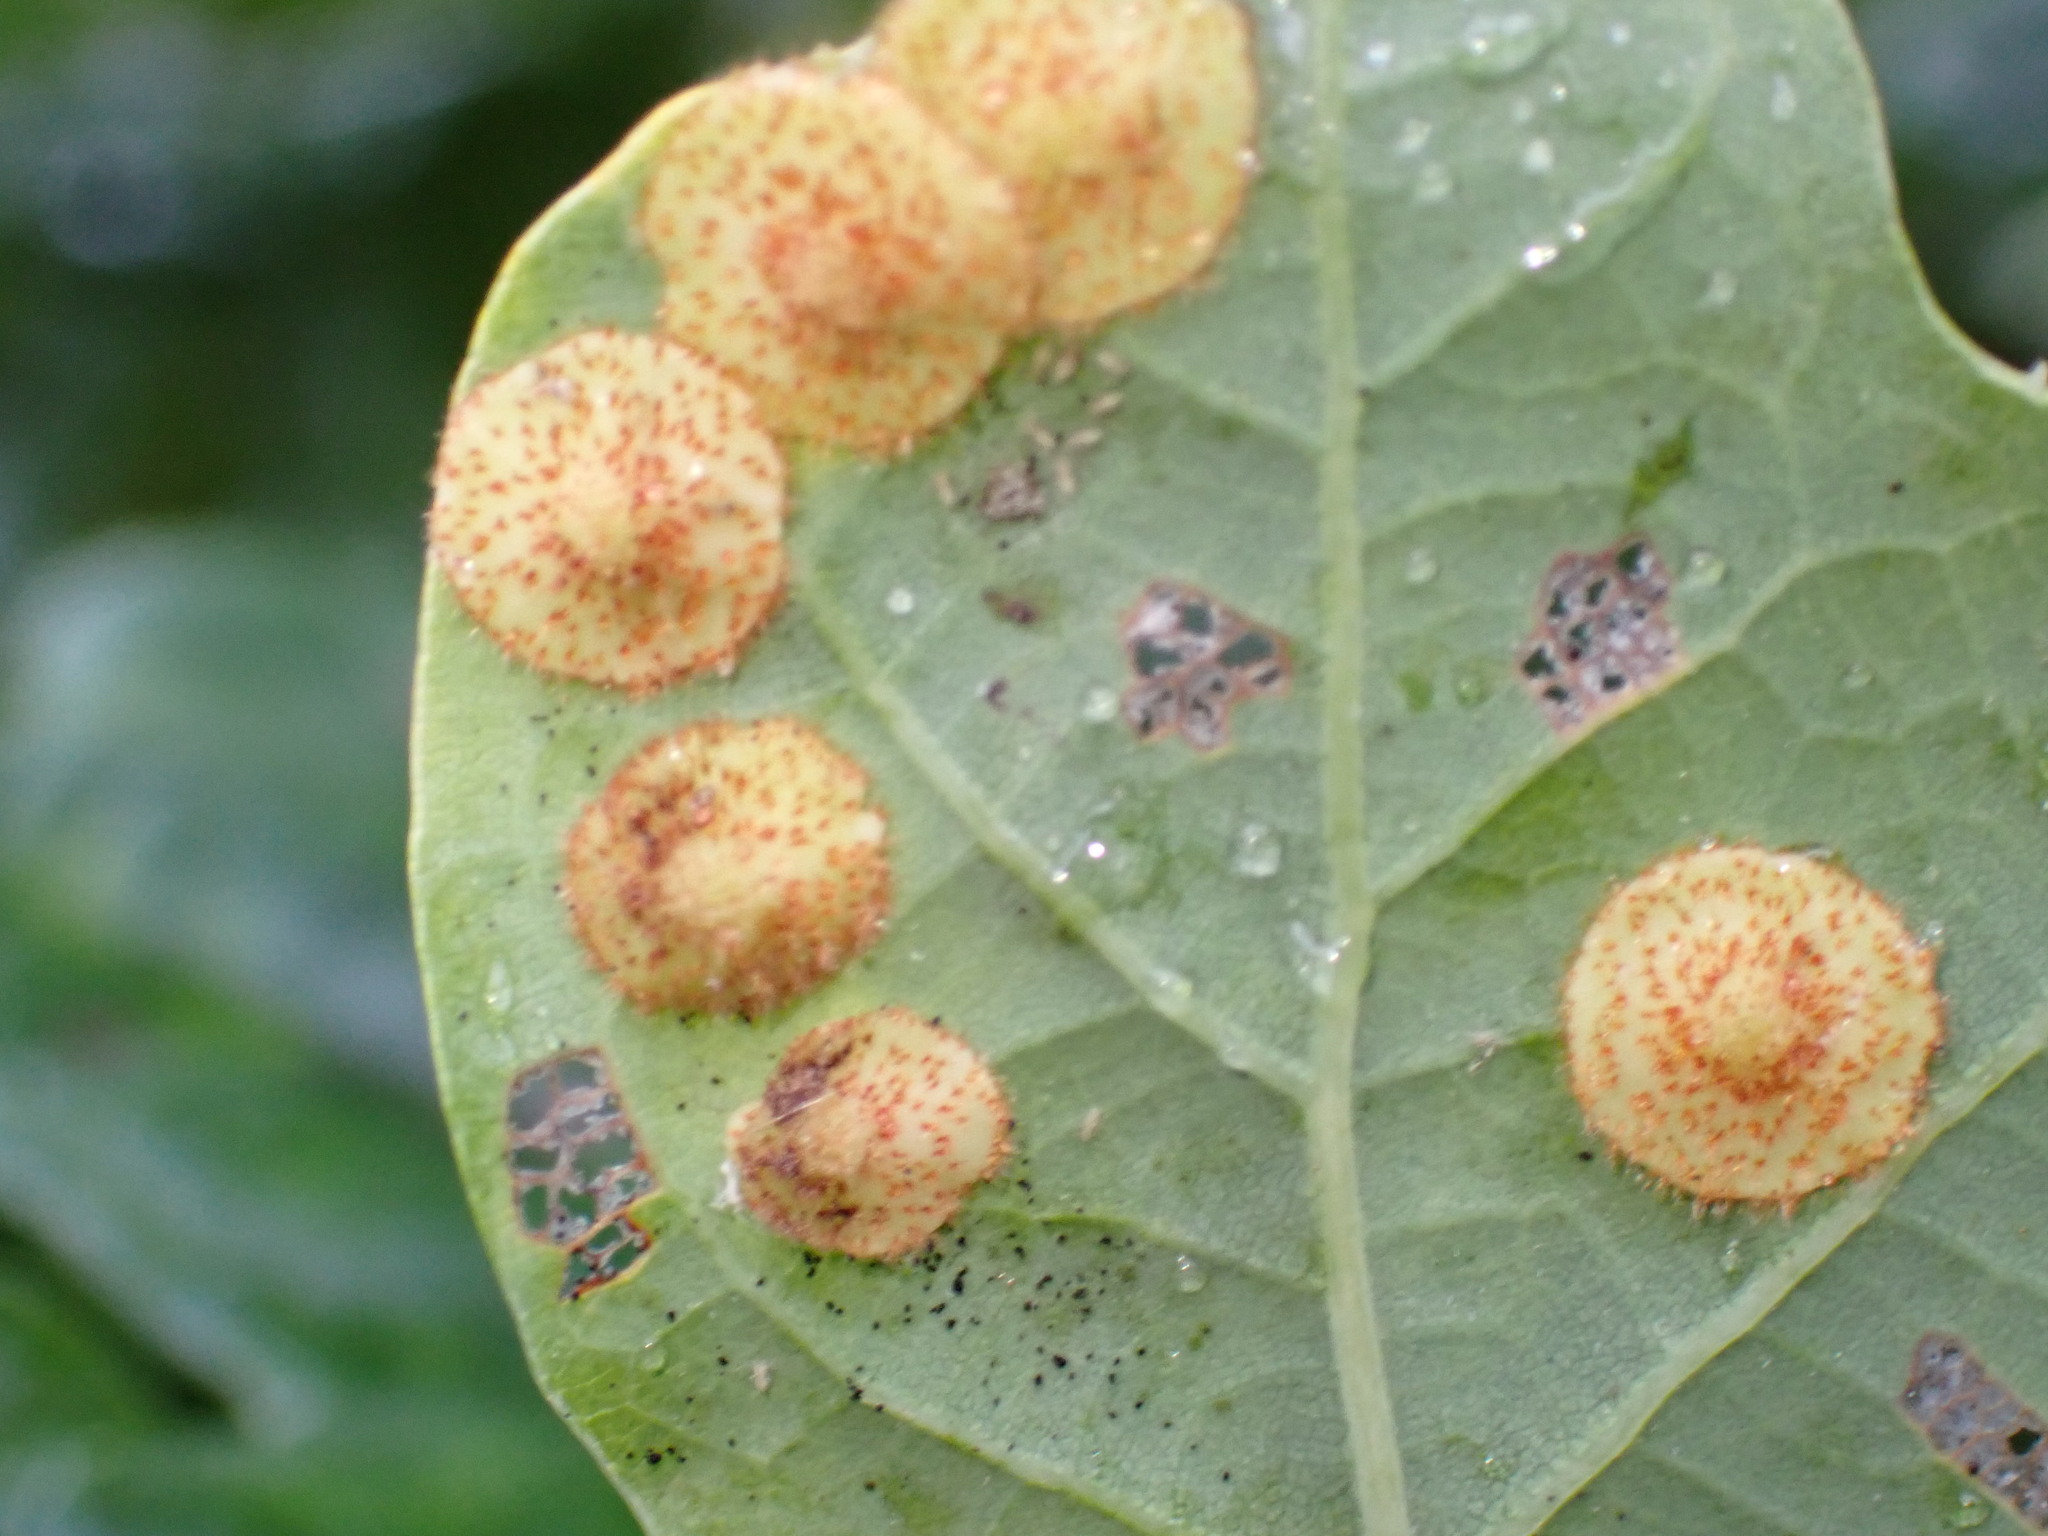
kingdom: Animalia
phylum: Arthropoda
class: Insecta
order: Hymenoptera
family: Cynipidae
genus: Neuroterus
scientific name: Neuroterus quercusbaccarum
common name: Common spangle gall
